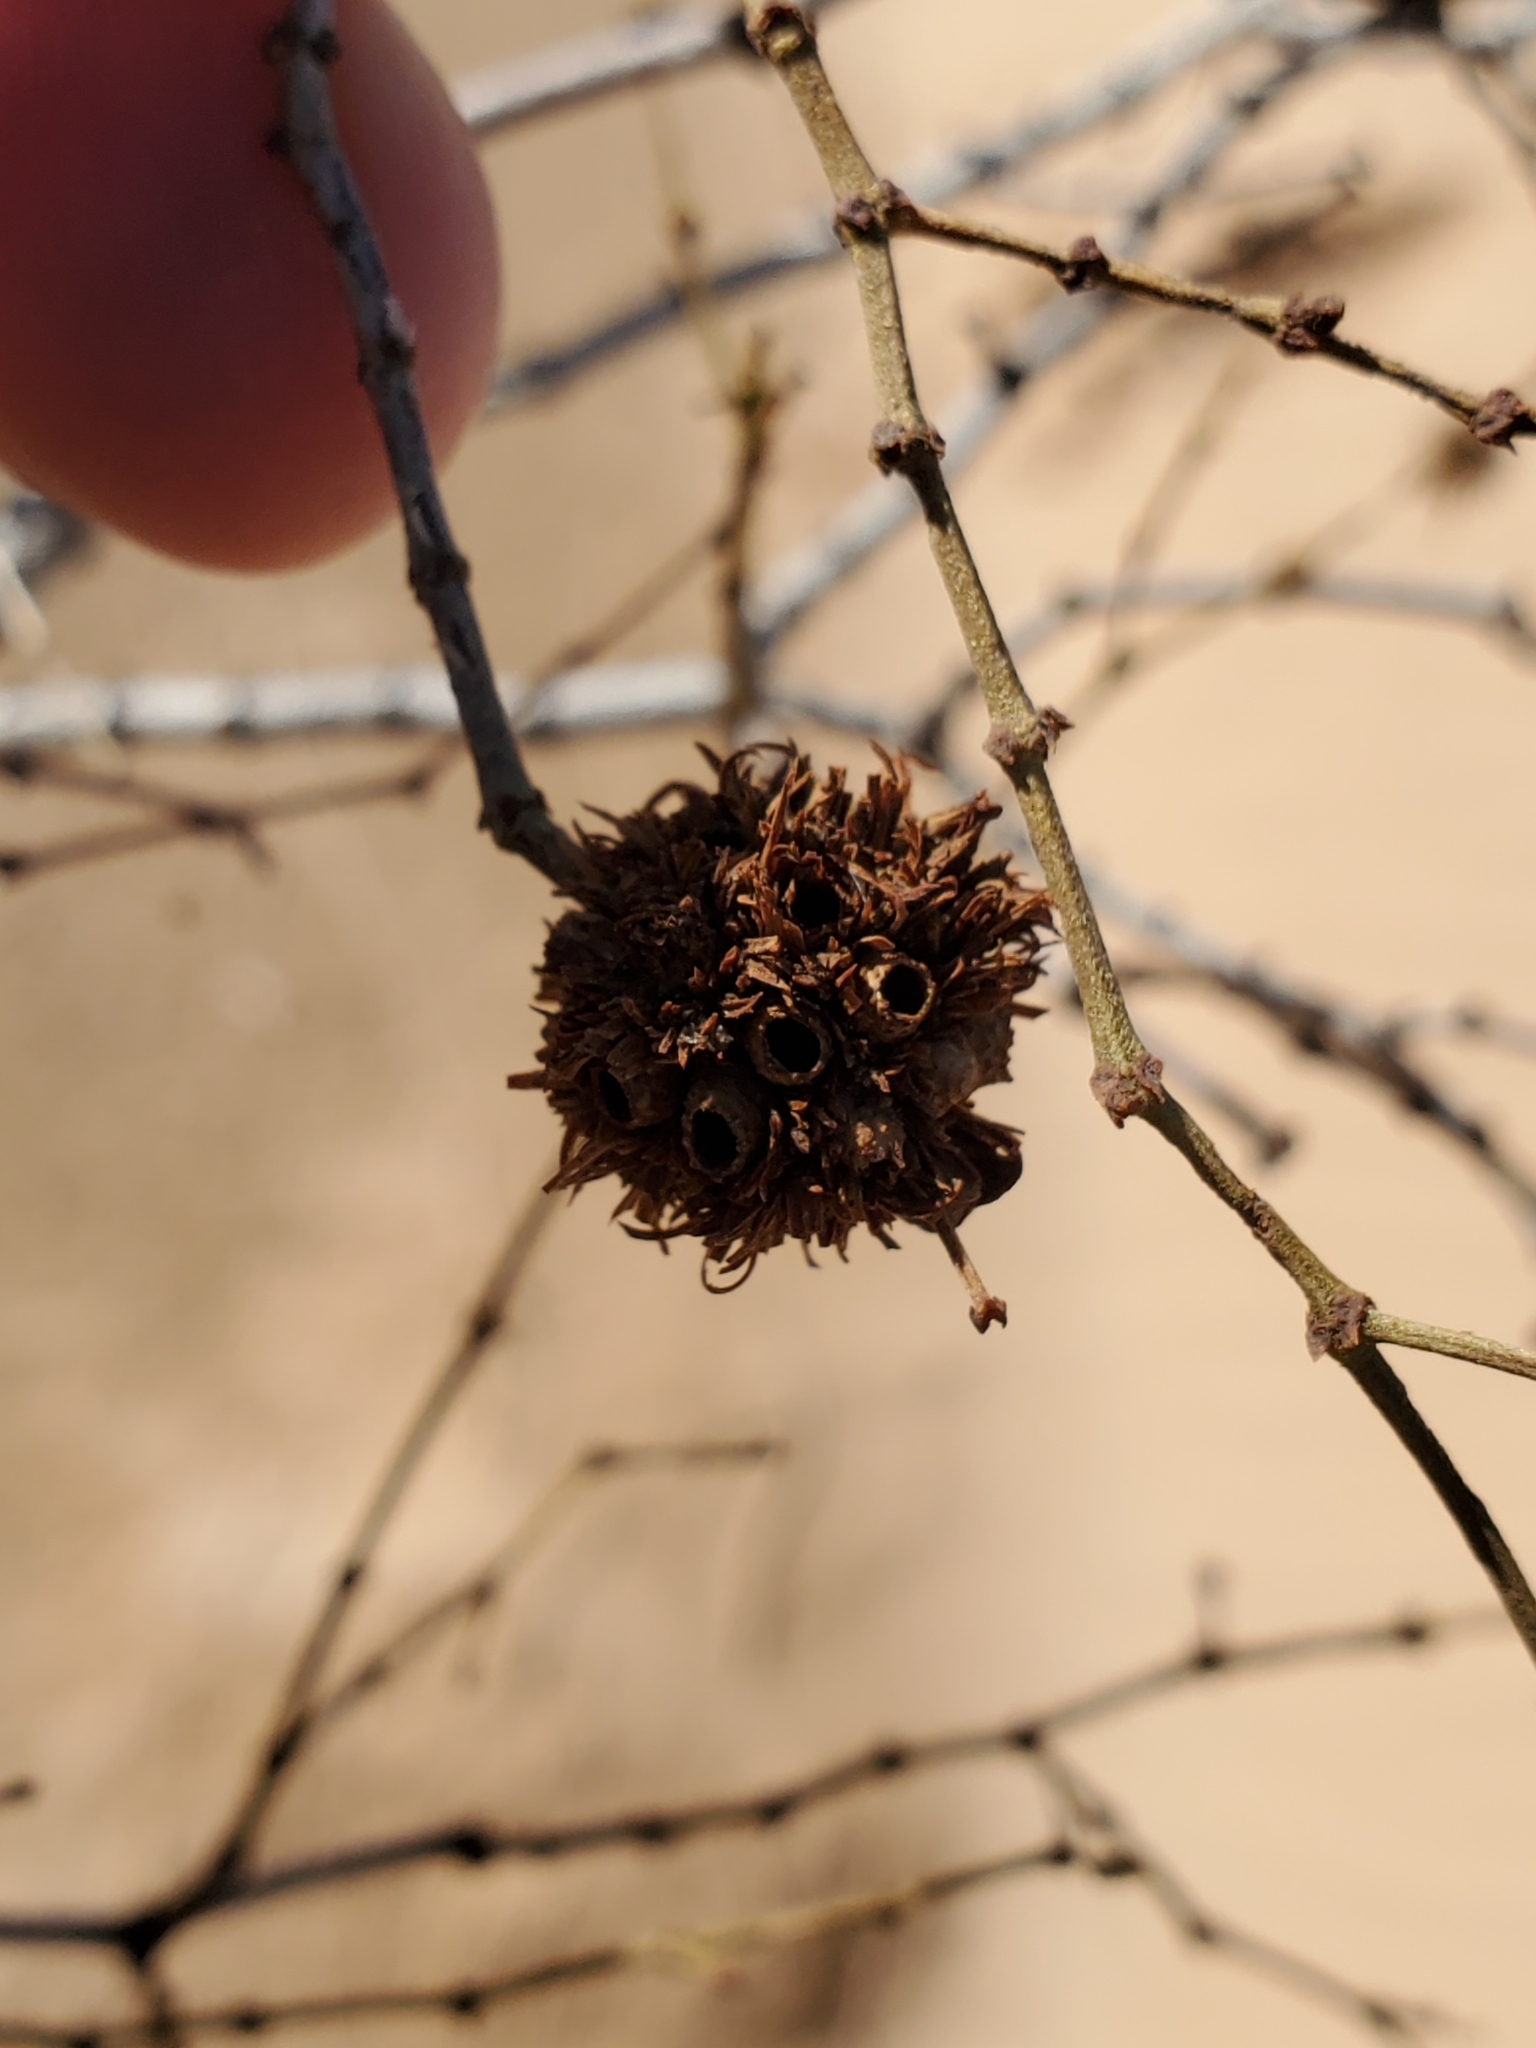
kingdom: Animalia
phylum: Arthropoda
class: Insecta
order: Diptera
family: Cecidomyiidae
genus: Asphondylia
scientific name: Asphondylia auripila
